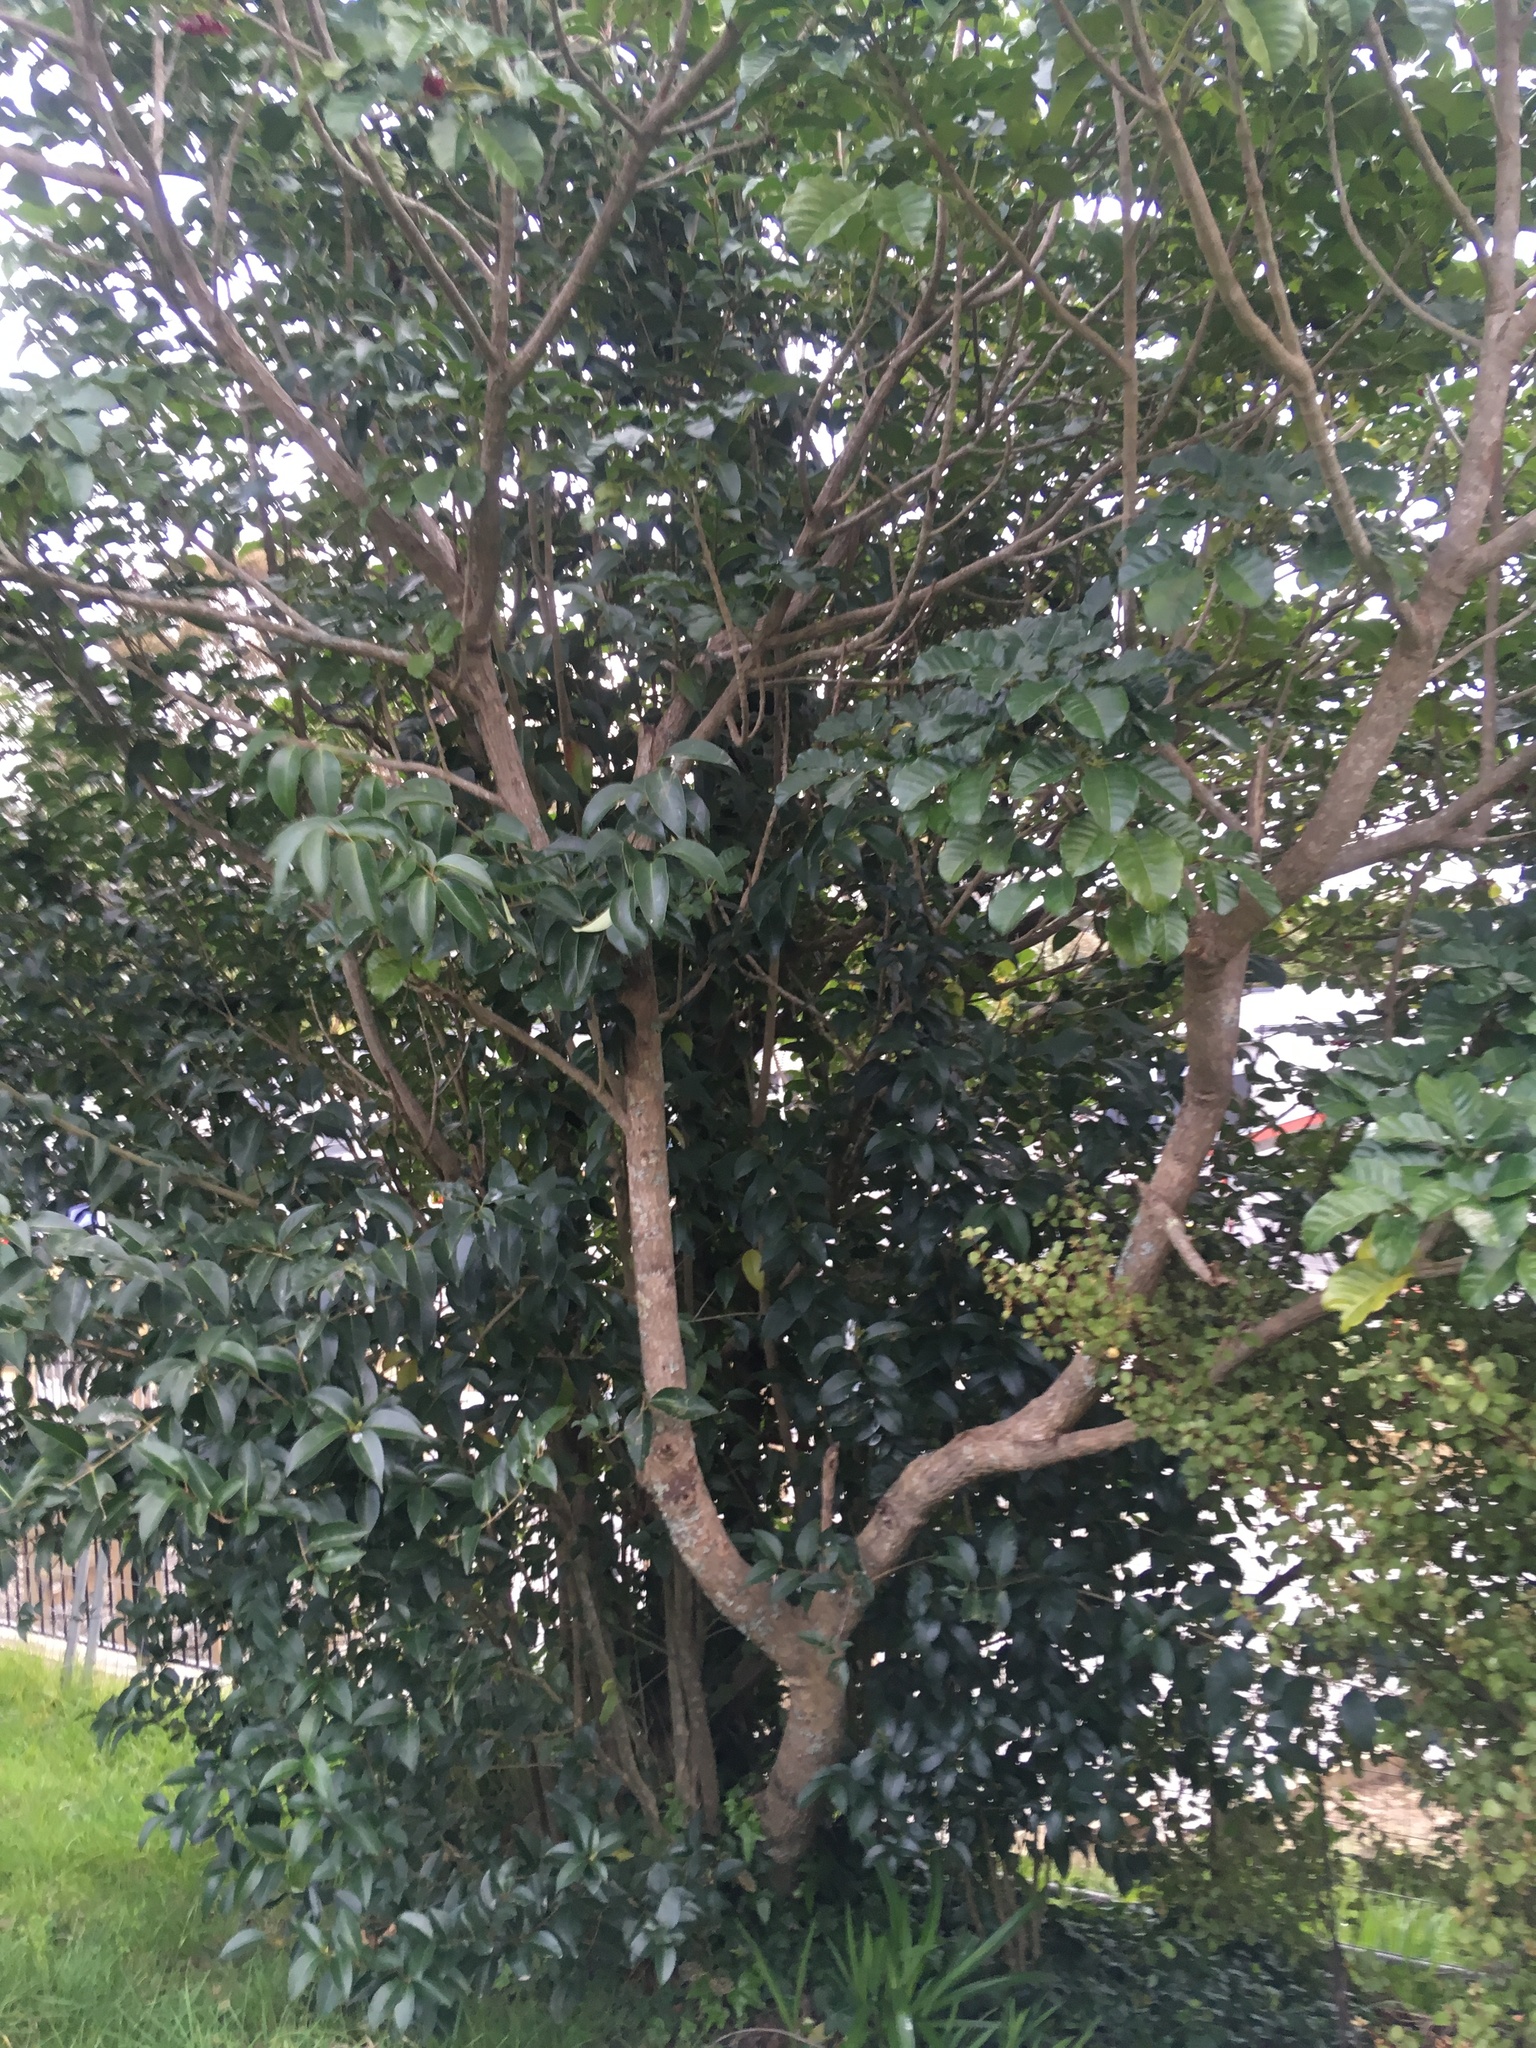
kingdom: Plantae
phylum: Tracheophyta
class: Magnoliopsida
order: Lamiales
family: Lamiaceae
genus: Vitex
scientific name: Vitex lucens
